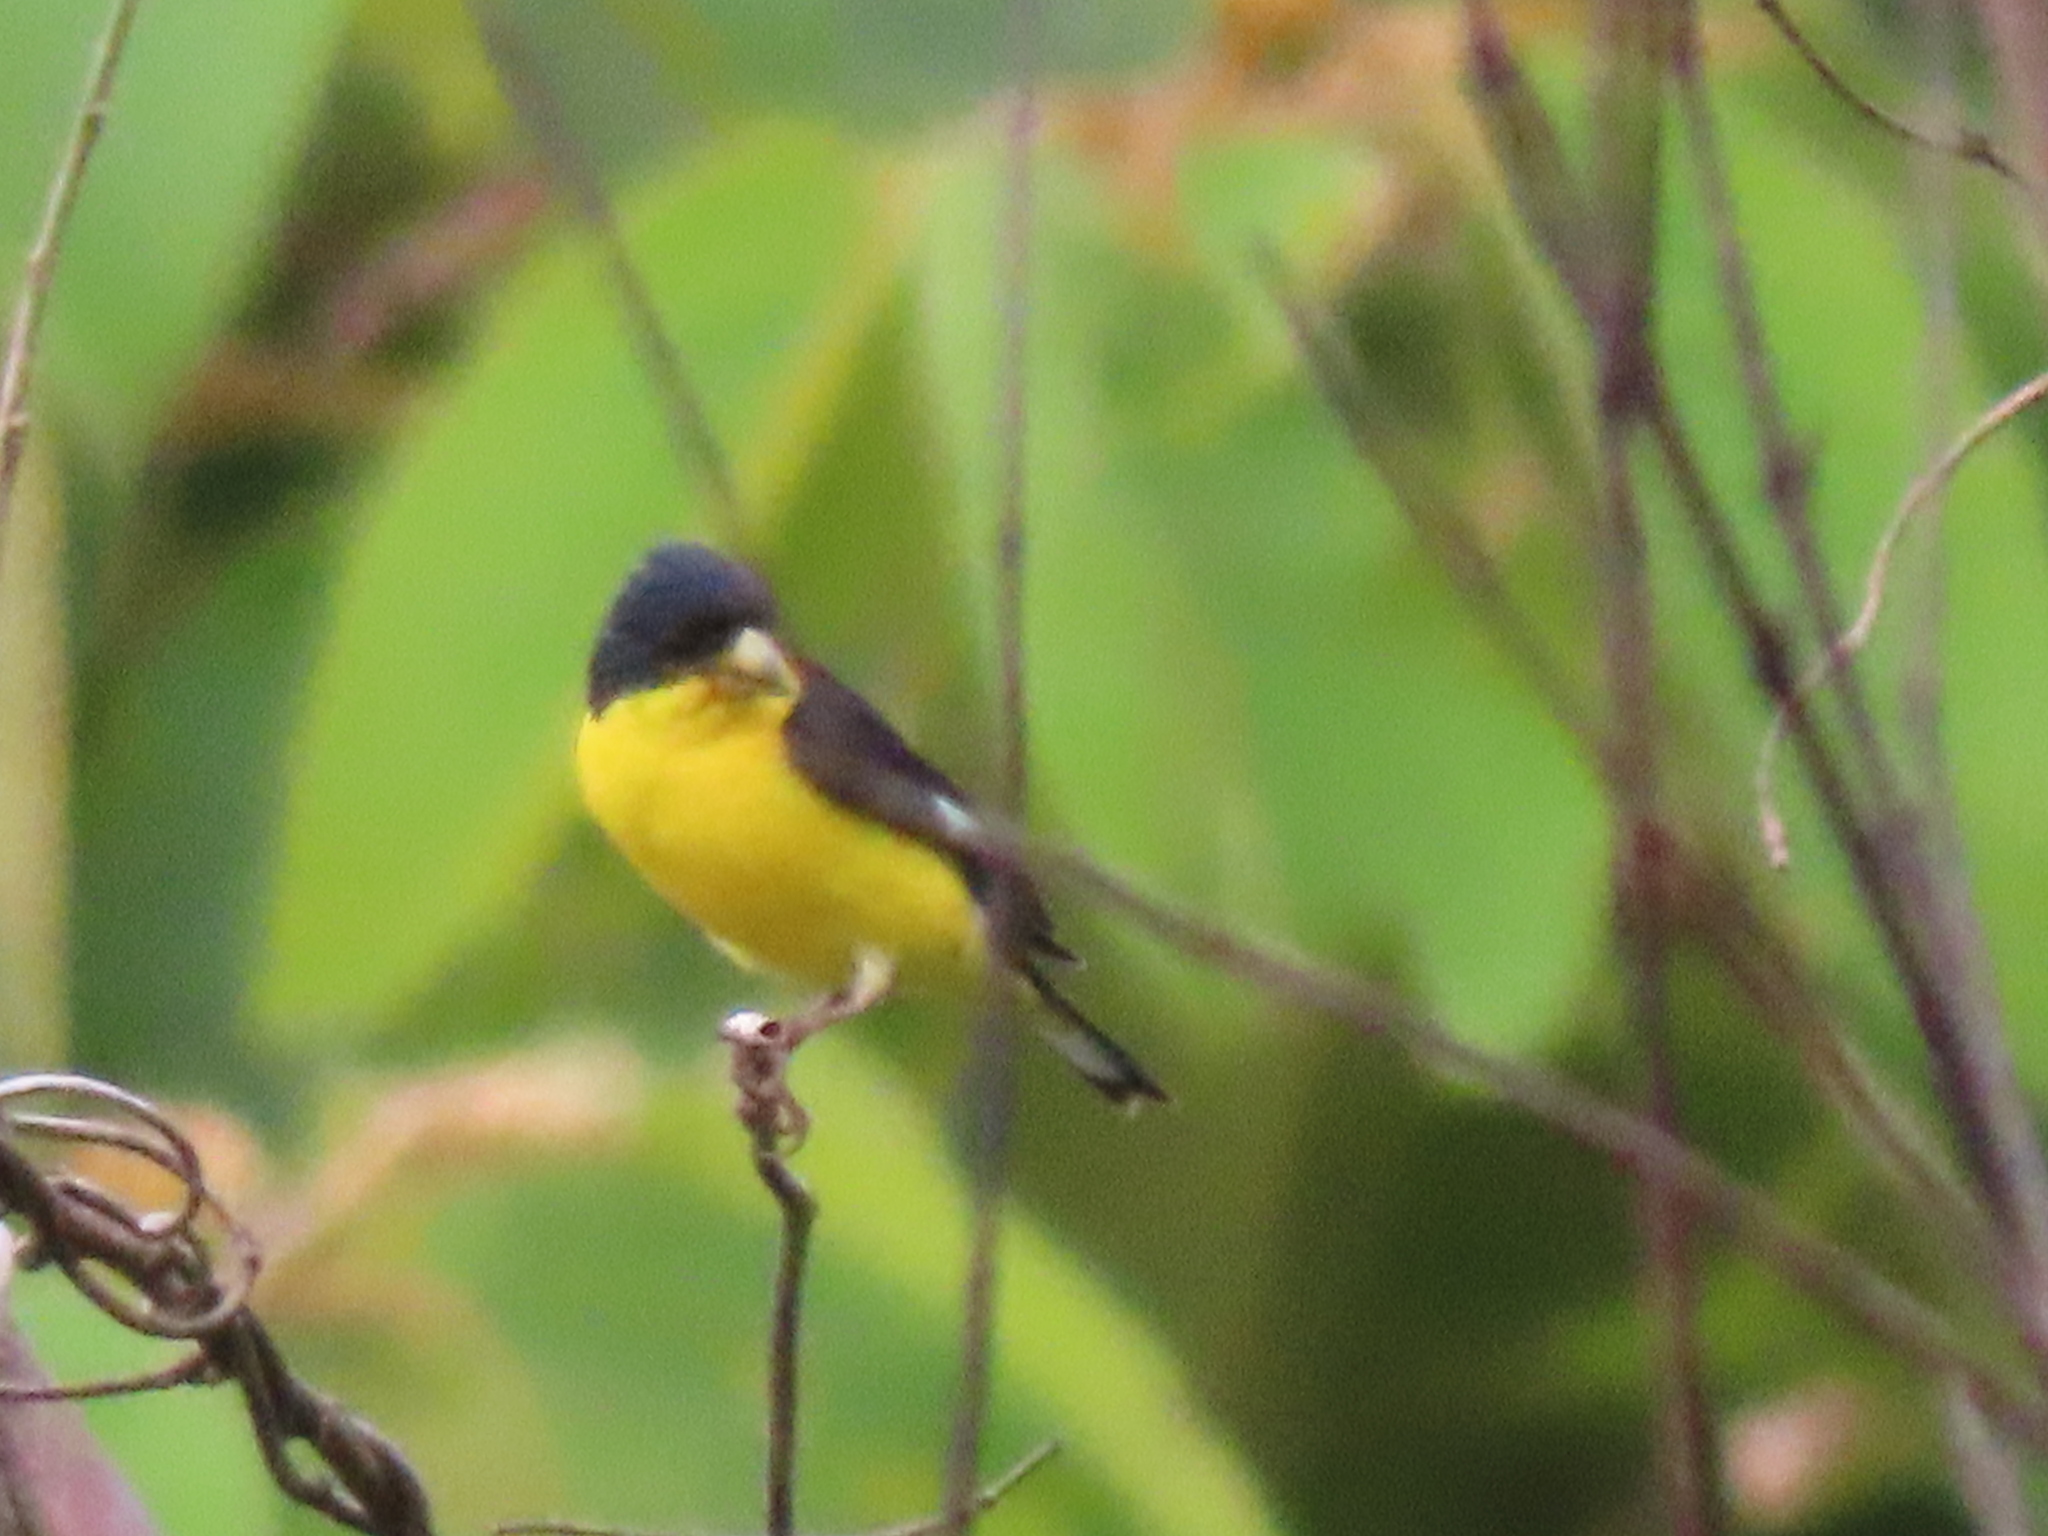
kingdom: Animalia
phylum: Chordata
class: Aves
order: Passeriformes
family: Fringillidae
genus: Spinus
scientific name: Spinus psaltria
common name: Lesser goldfinch
